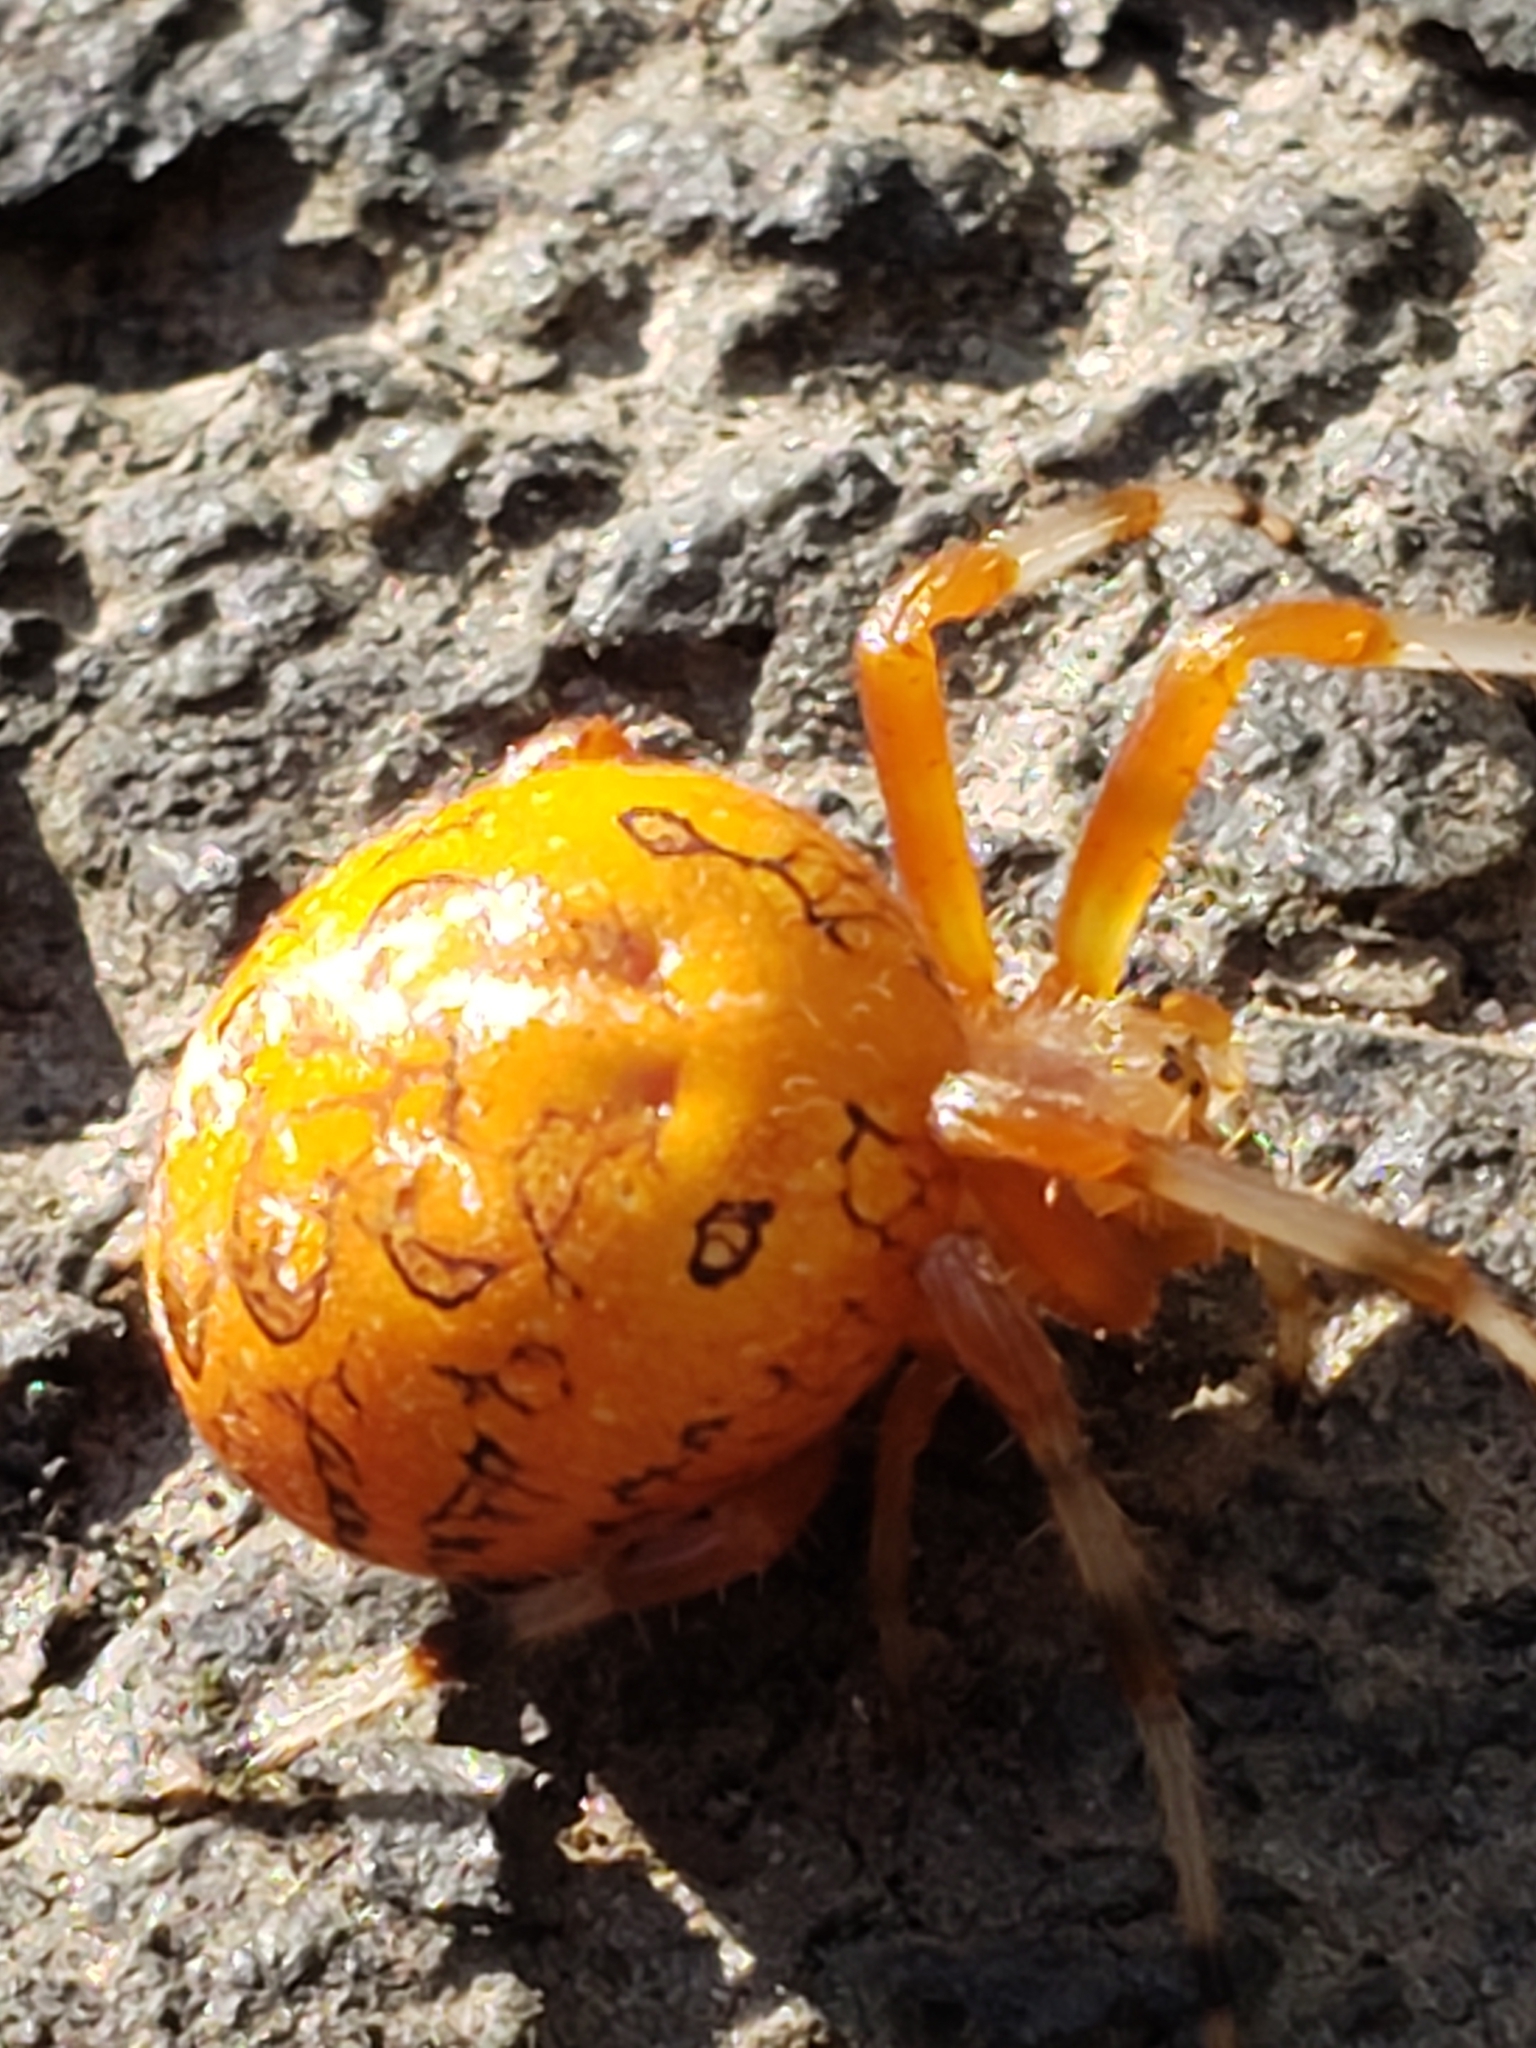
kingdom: Animalia
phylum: Arthropoda
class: Arachnida
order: Araneae
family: Araneidae
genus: Araneus
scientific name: Araneus marmoreus
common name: Marbled orbweaver
